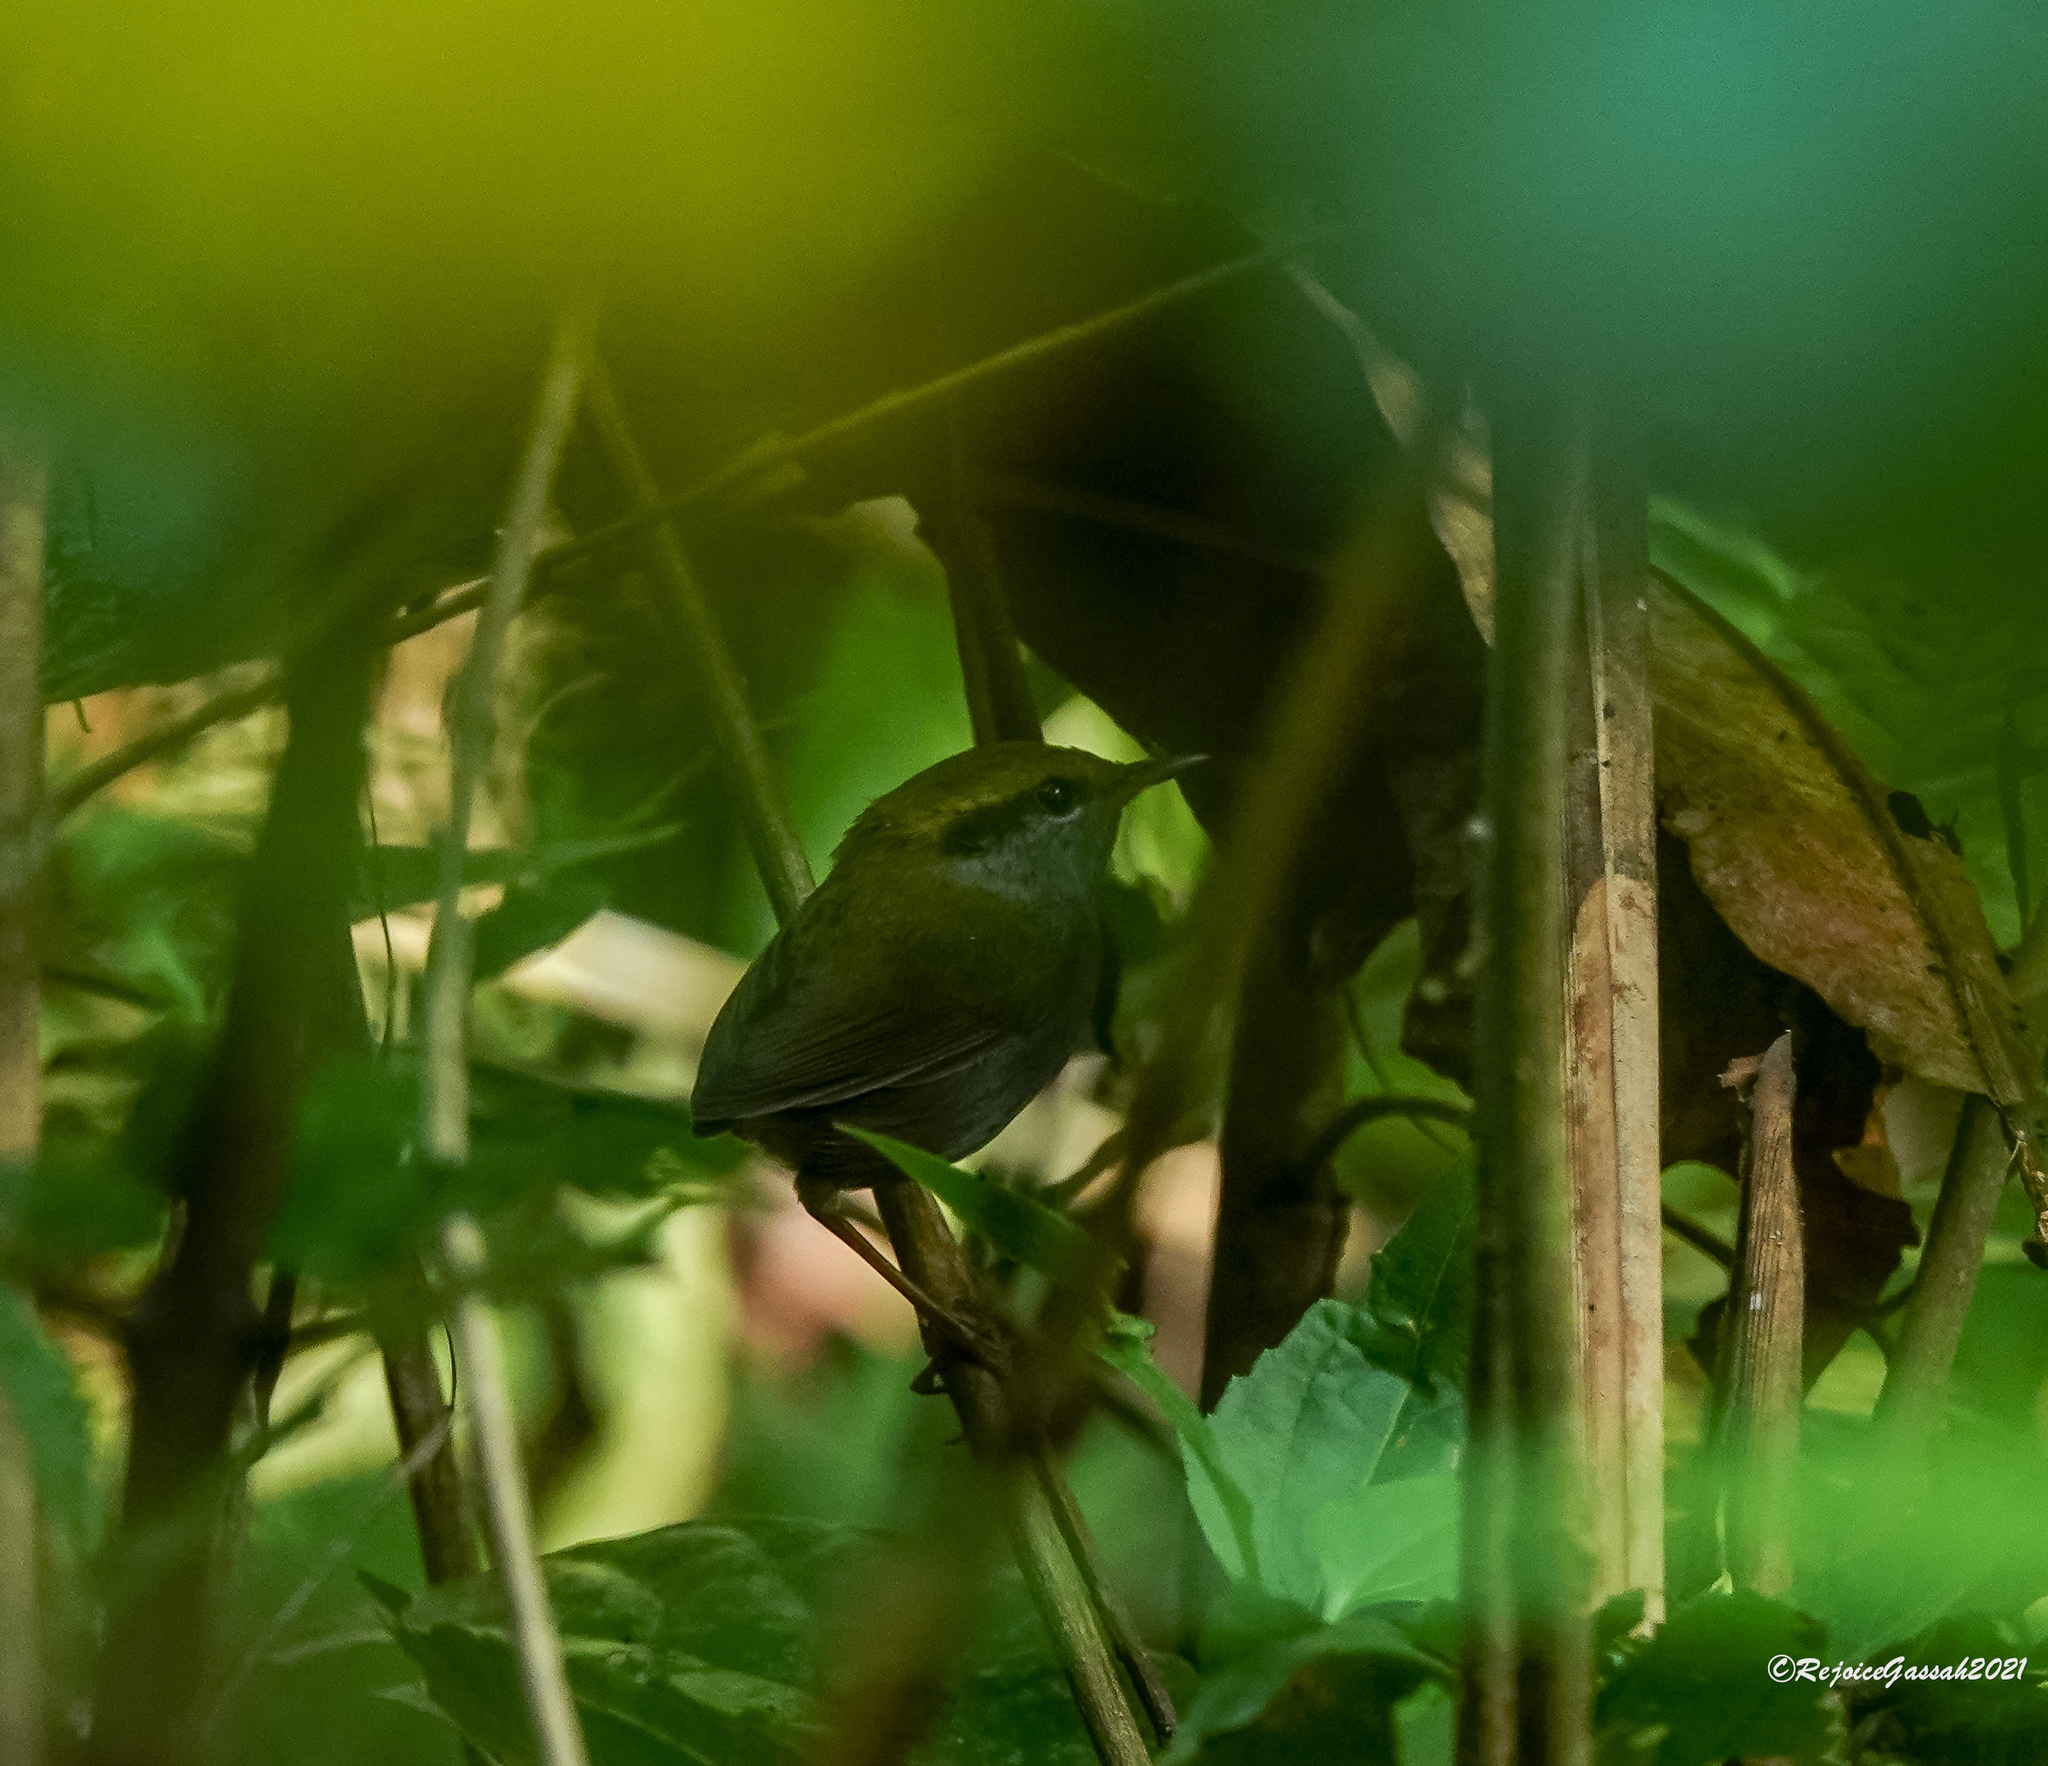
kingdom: Animalia
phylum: Chordata
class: Aves
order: Passeriformes
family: Cettiidae
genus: Tesia
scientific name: Tesia cyaniventer
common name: Grey-bellied tesia
